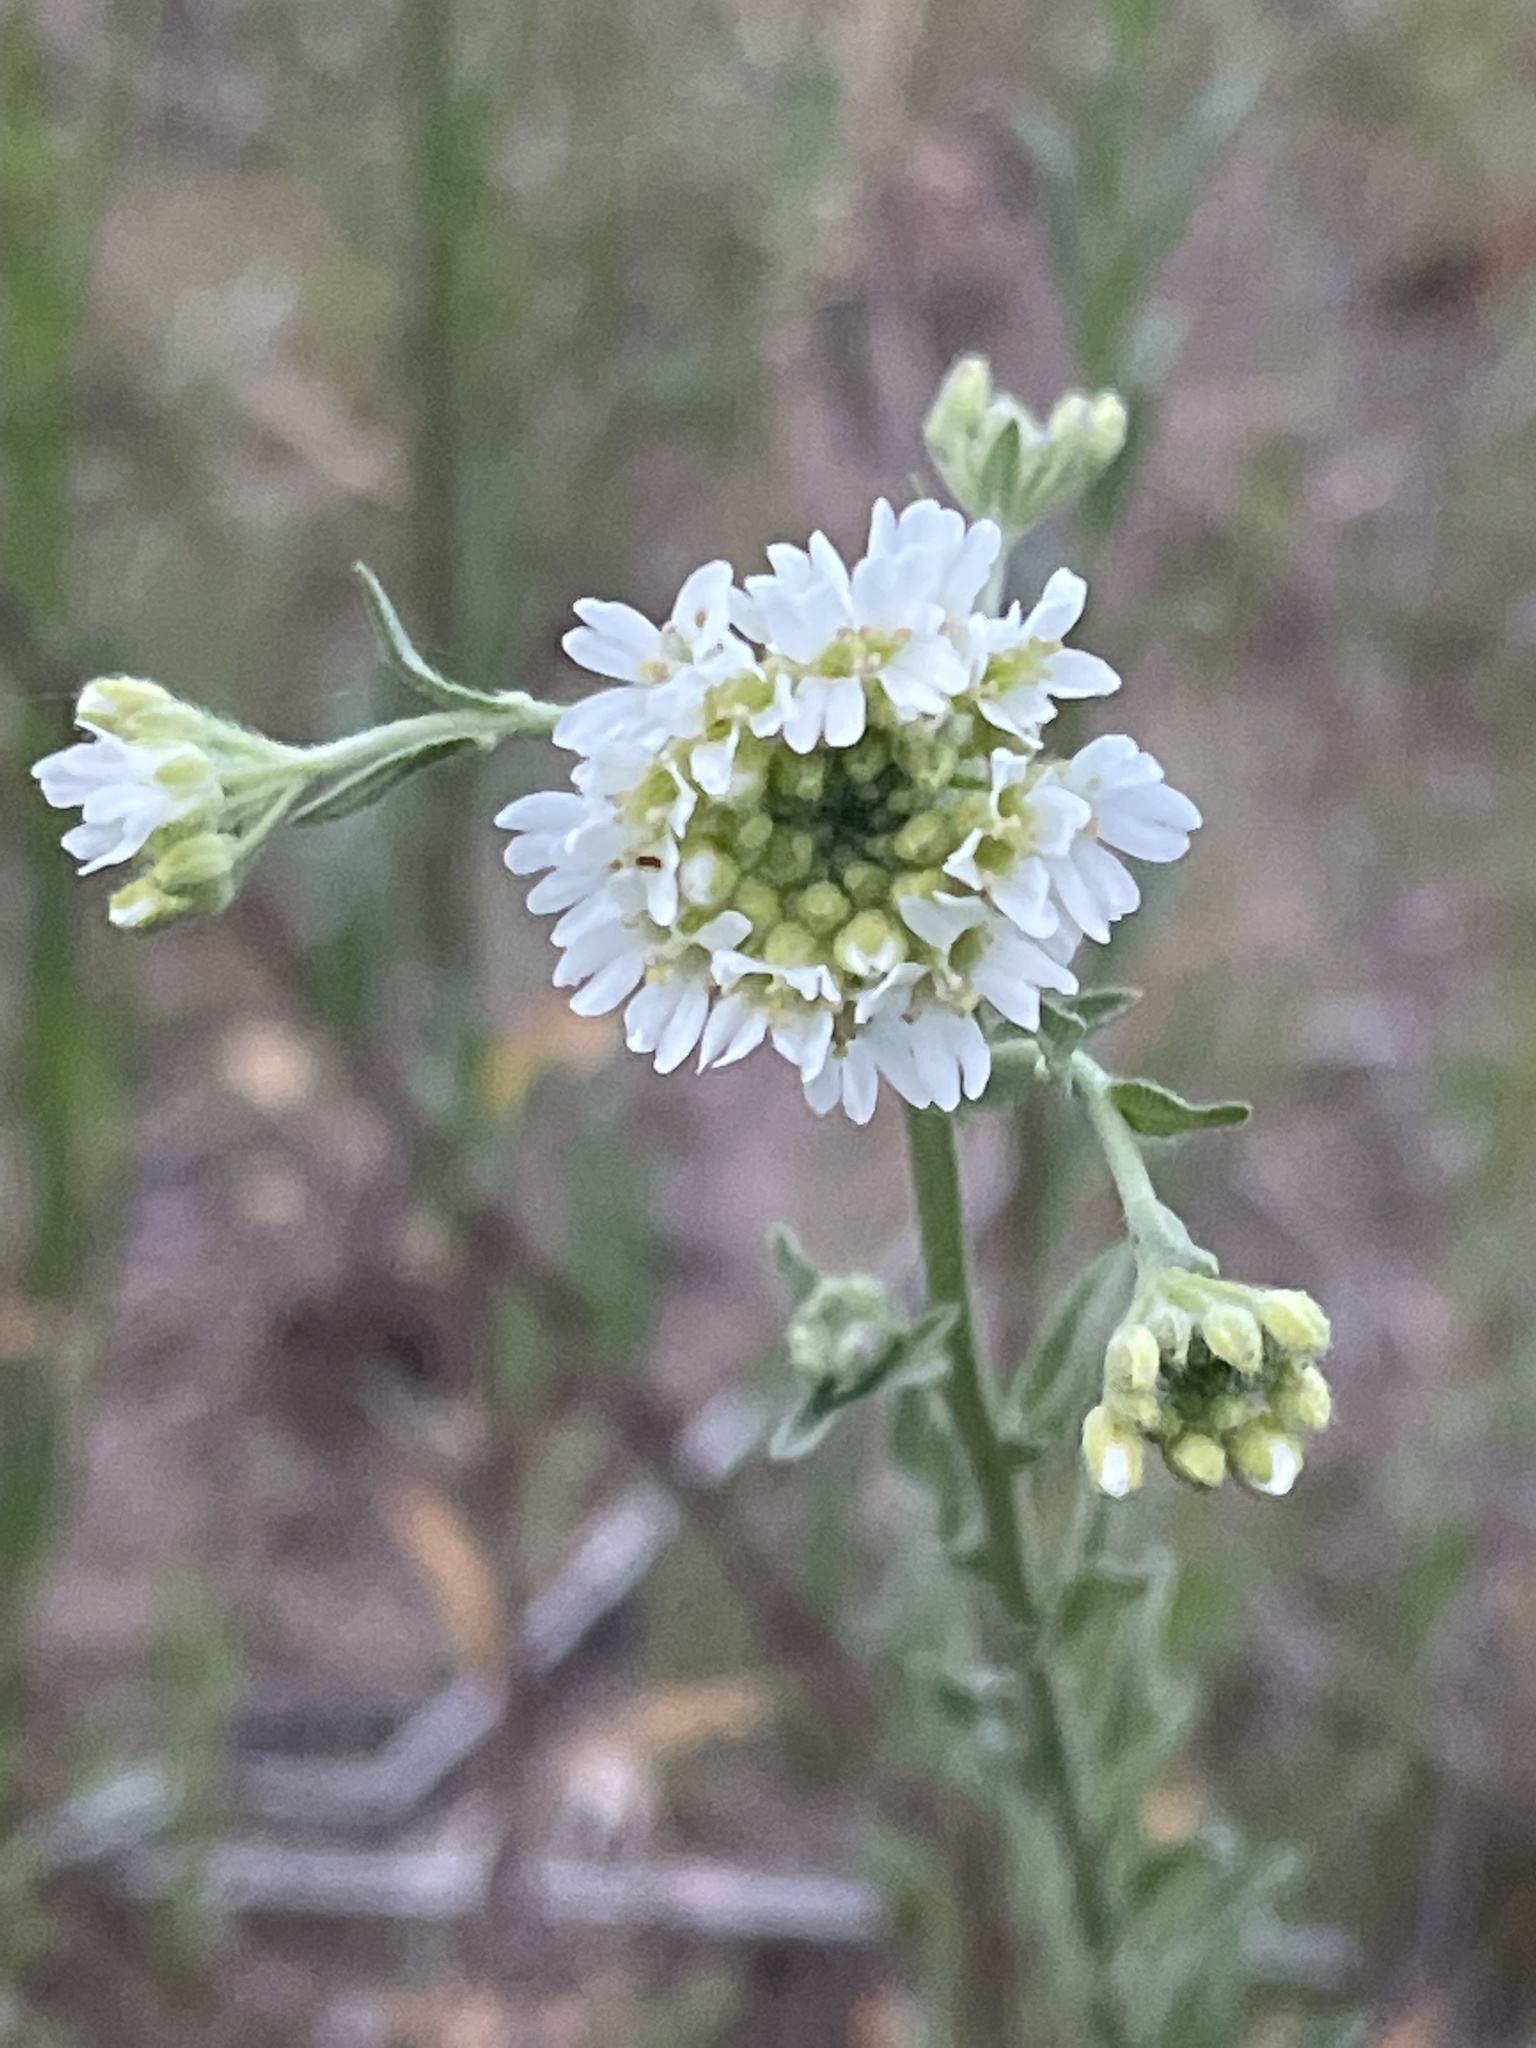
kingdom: Plantae
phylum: Tracheophyta
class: Magnoliopsida
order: Brassicales
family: Brassicaceae
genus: Berteroa
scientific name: Berteroa incana
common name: Hoary alison
